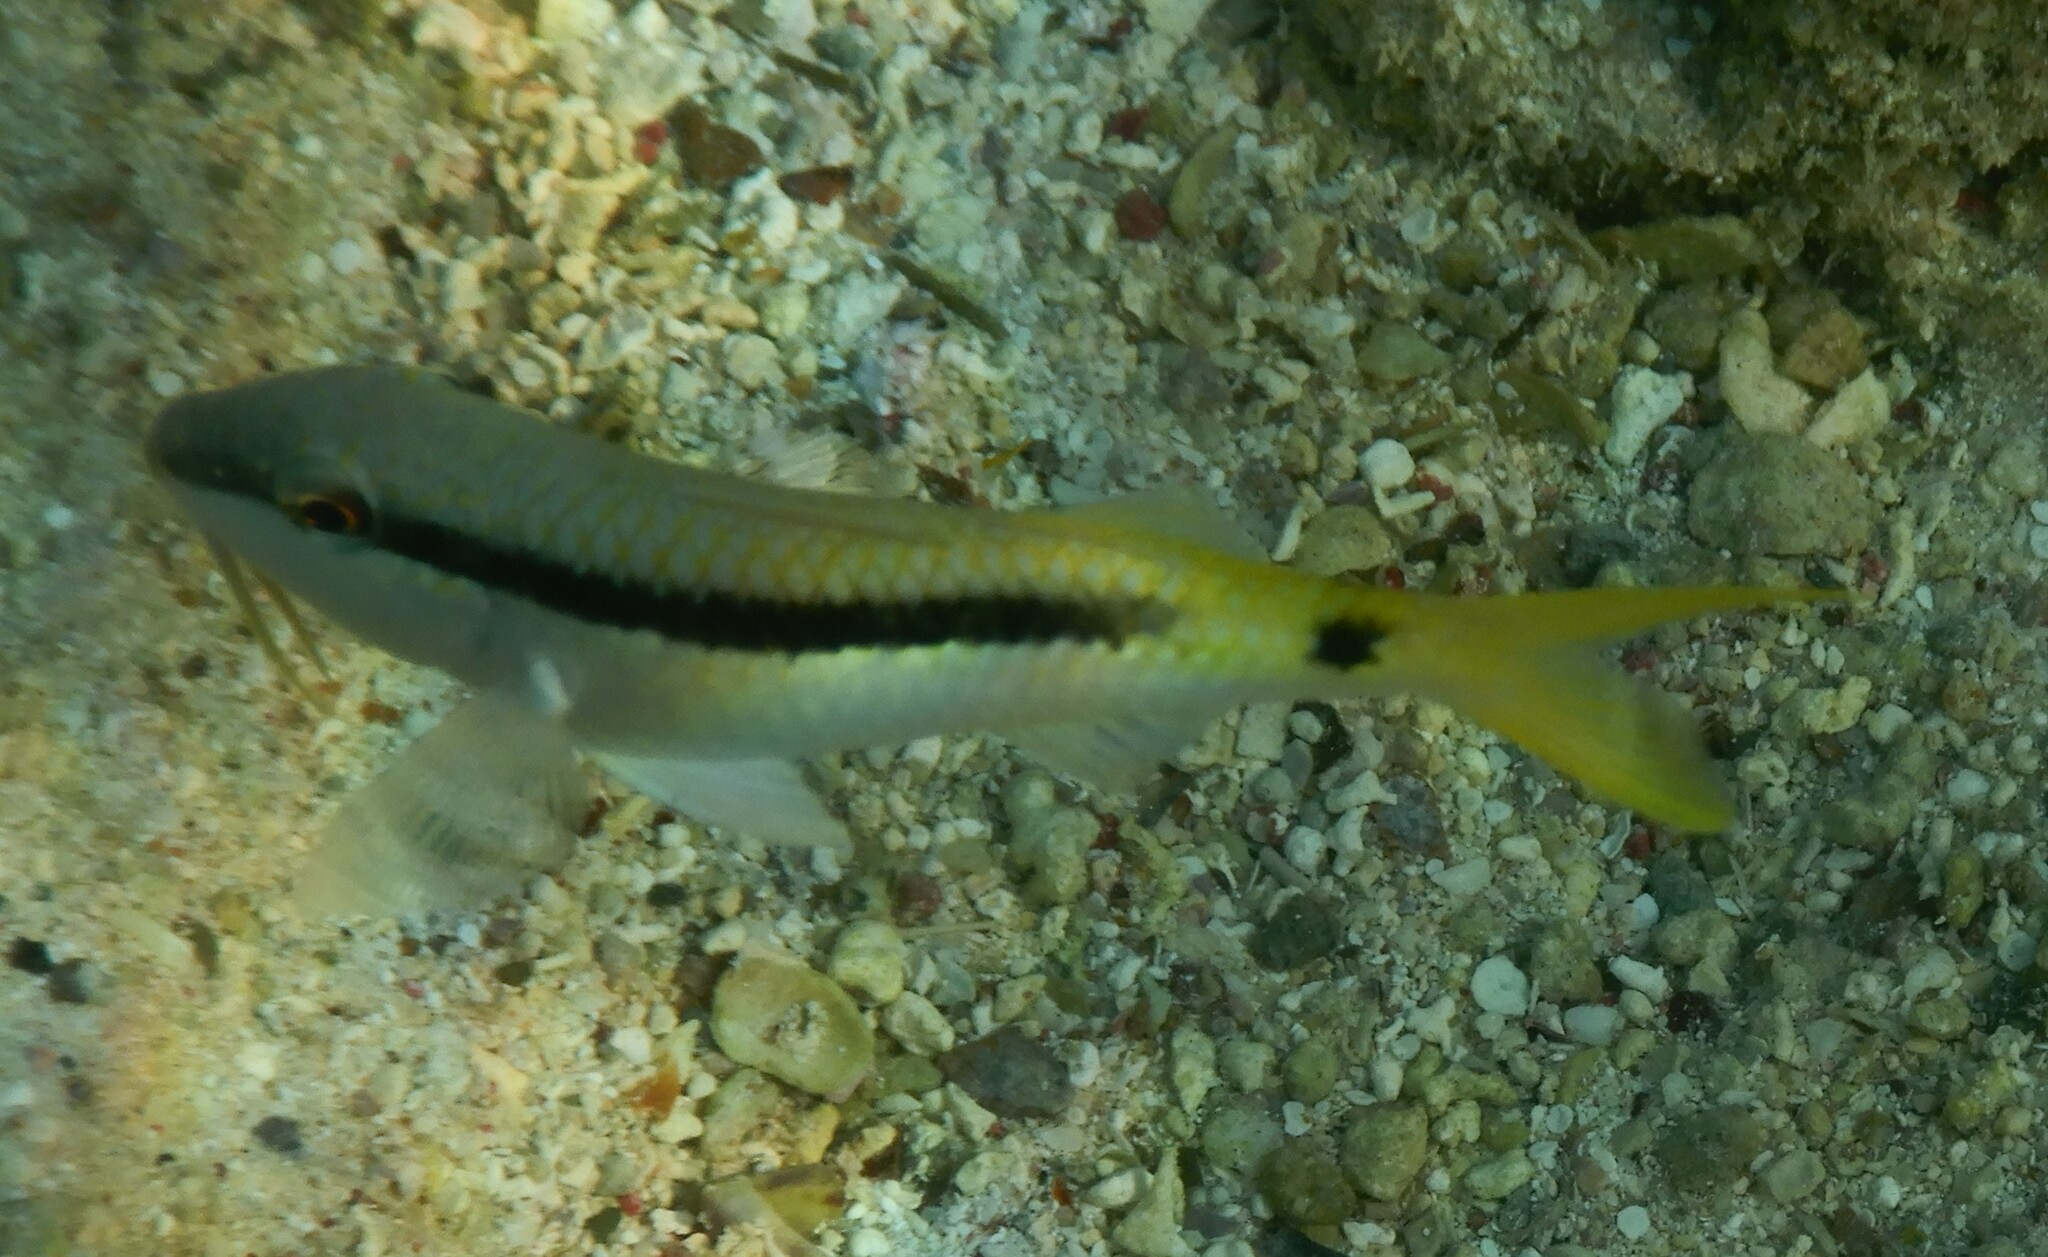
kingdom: Animalia
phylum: Chordata
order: Perciformes
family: Mullidae
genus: Parupeneus
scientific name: Parupeneus forsskali
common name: Red sea goatfish
